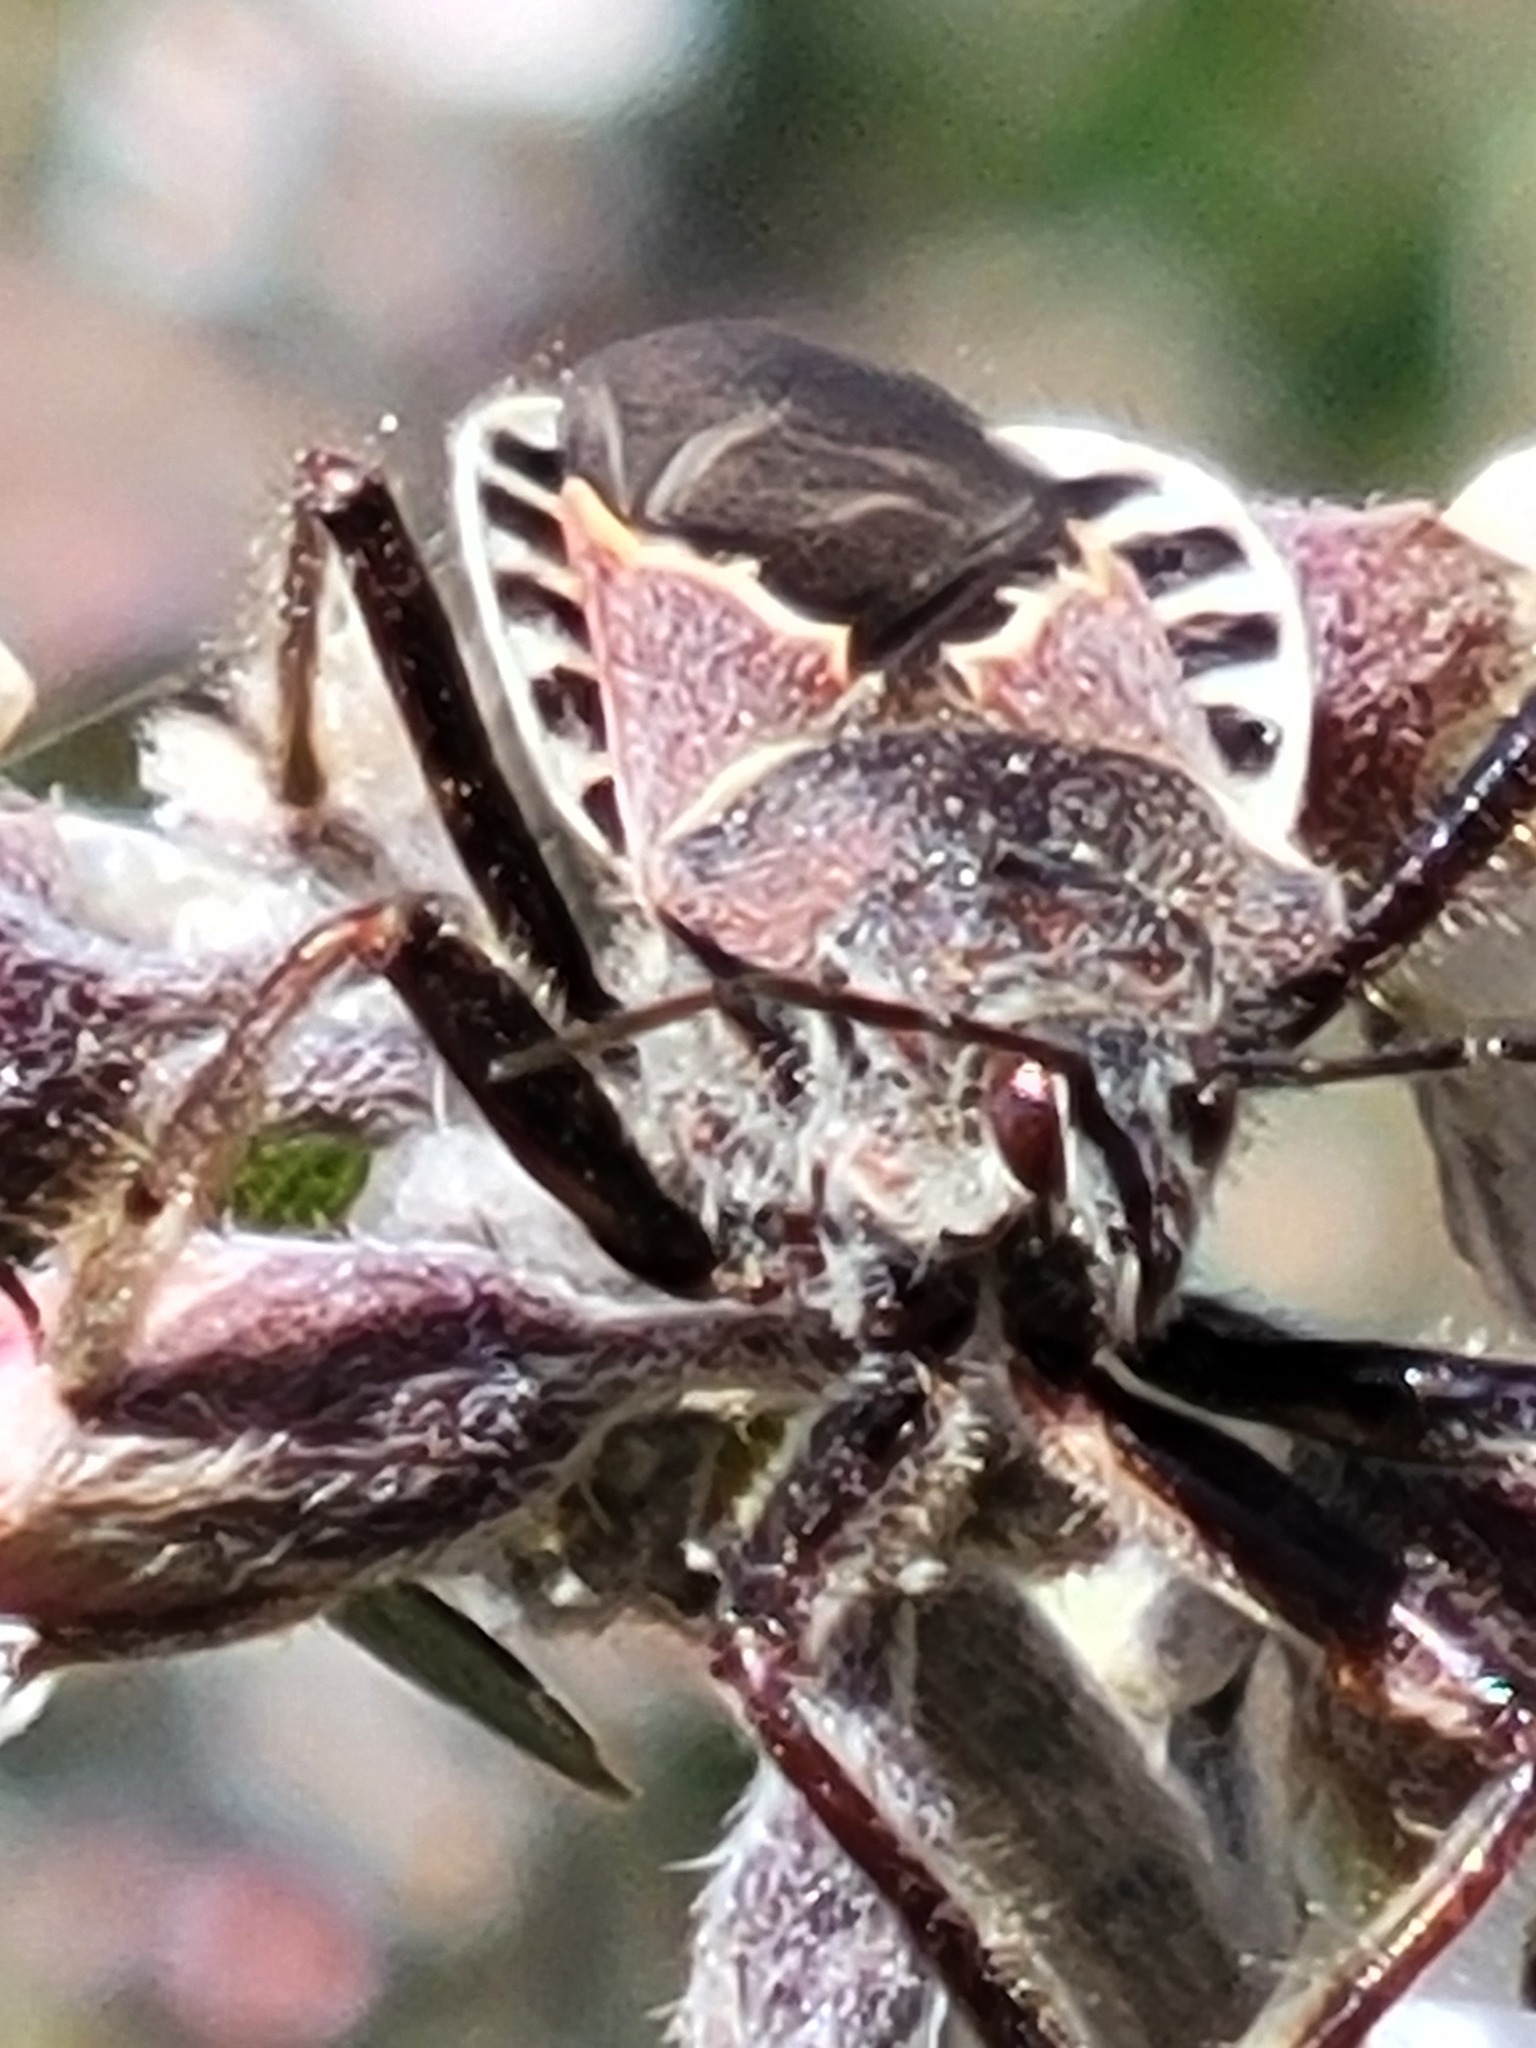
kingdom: Animalia
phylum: Arthropoda
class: Insecta
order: Hemiptera
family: Reduviidae
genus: Apiomerus
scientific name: Apiomerus spissipes
